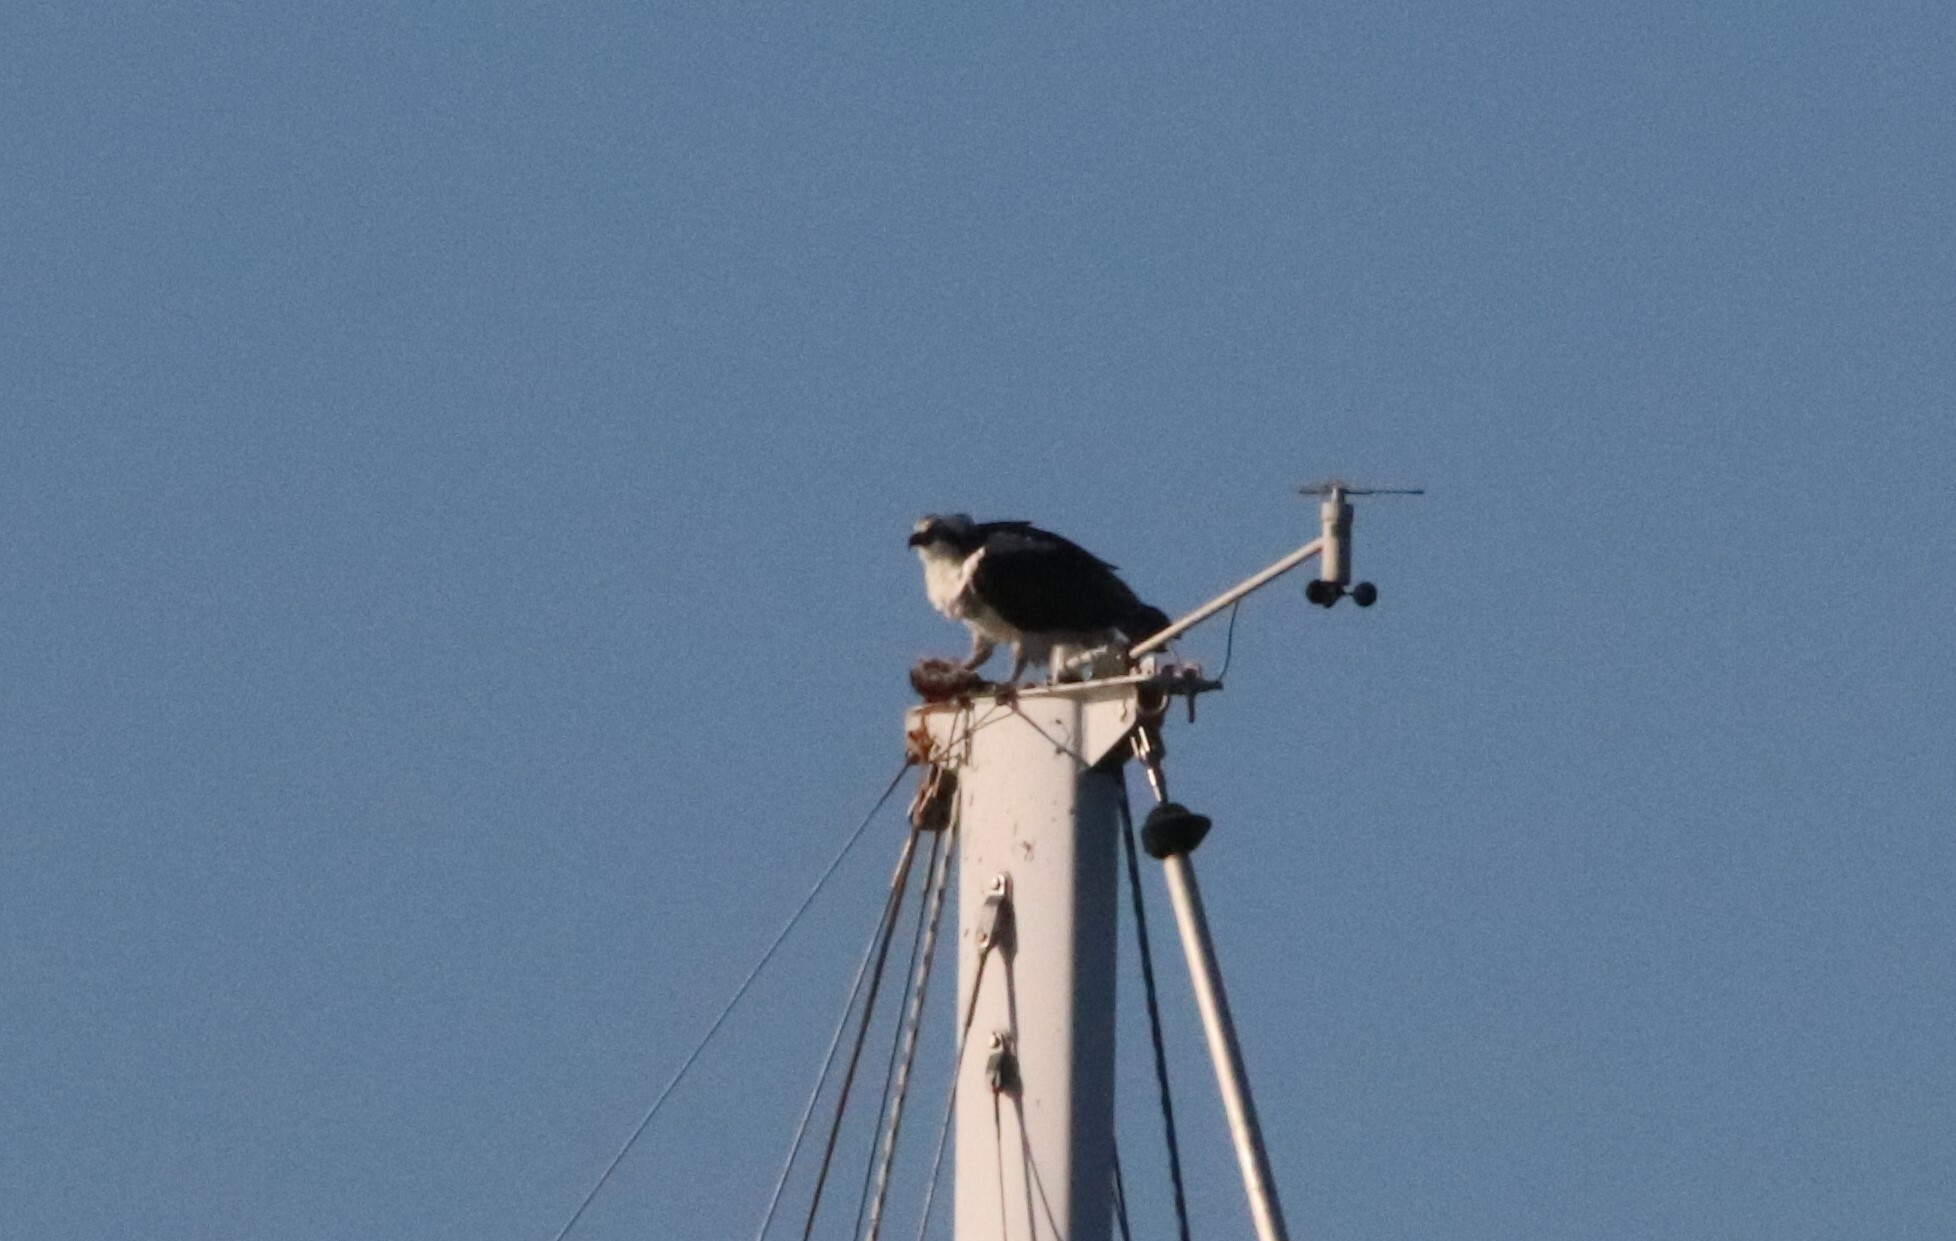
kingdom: Animalia
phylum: Chordata
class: Aves
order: Accipitriformes
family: Pandionidae
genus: Pandion
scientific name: Pandion haliaetus
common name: Osprey
